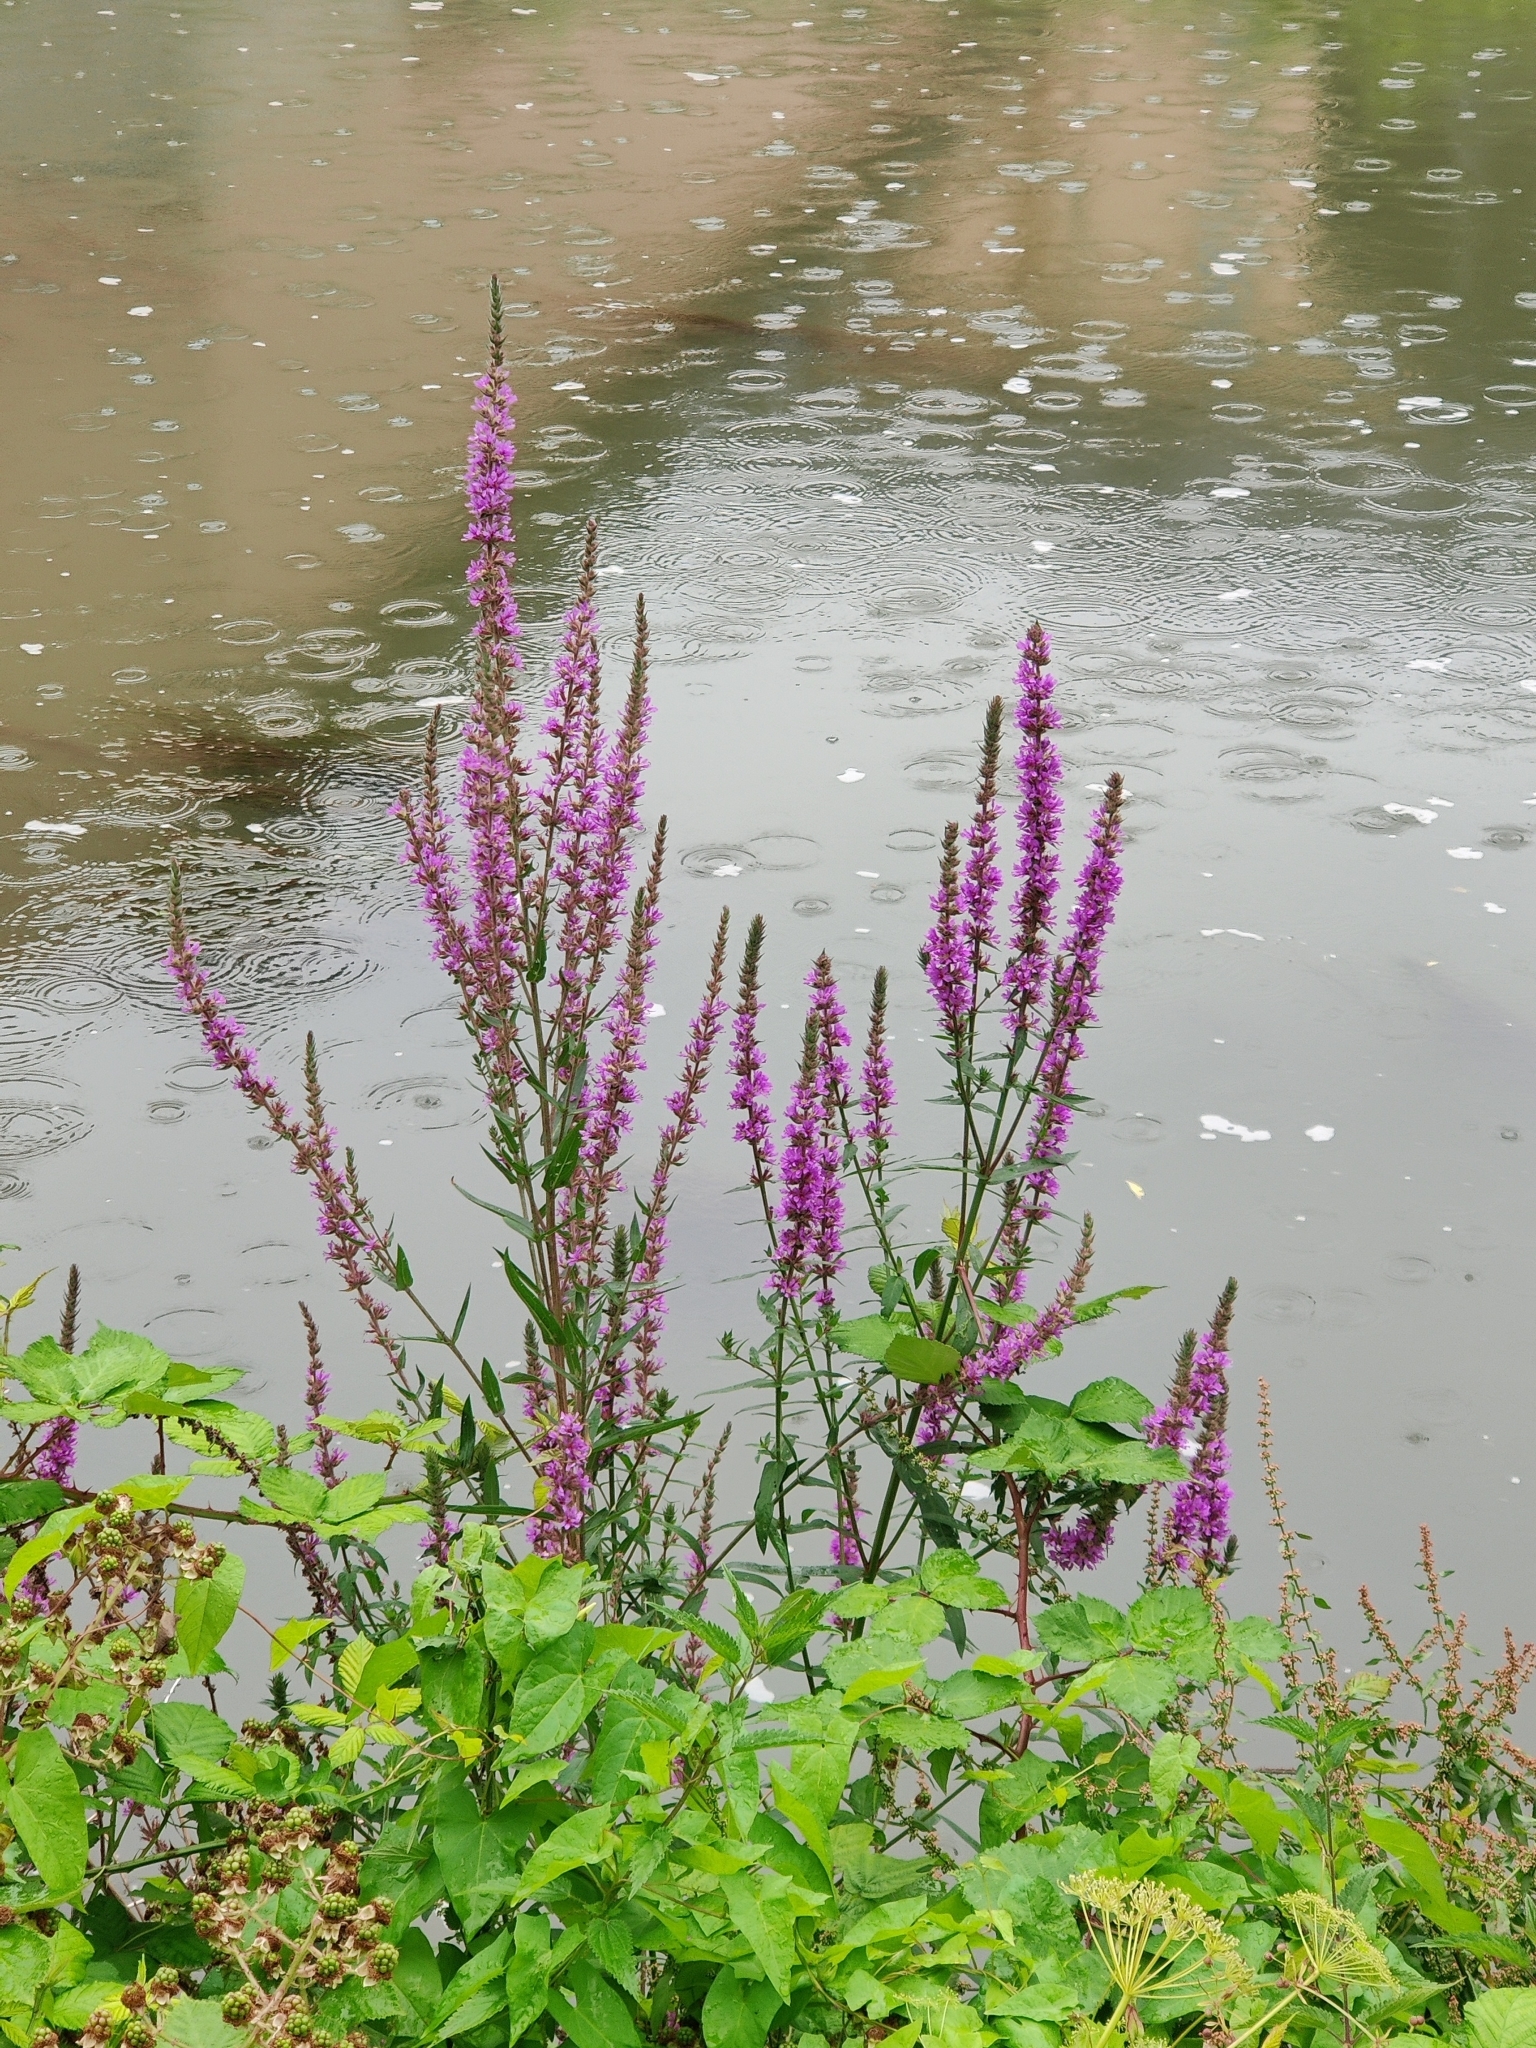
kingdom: Plantae
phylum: Tracheophyta
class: Magnoliopsida
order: Myrtales
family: Lythraceae
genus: Lythrum
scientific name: Lythrum salicaria
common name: Purple loosestrife
